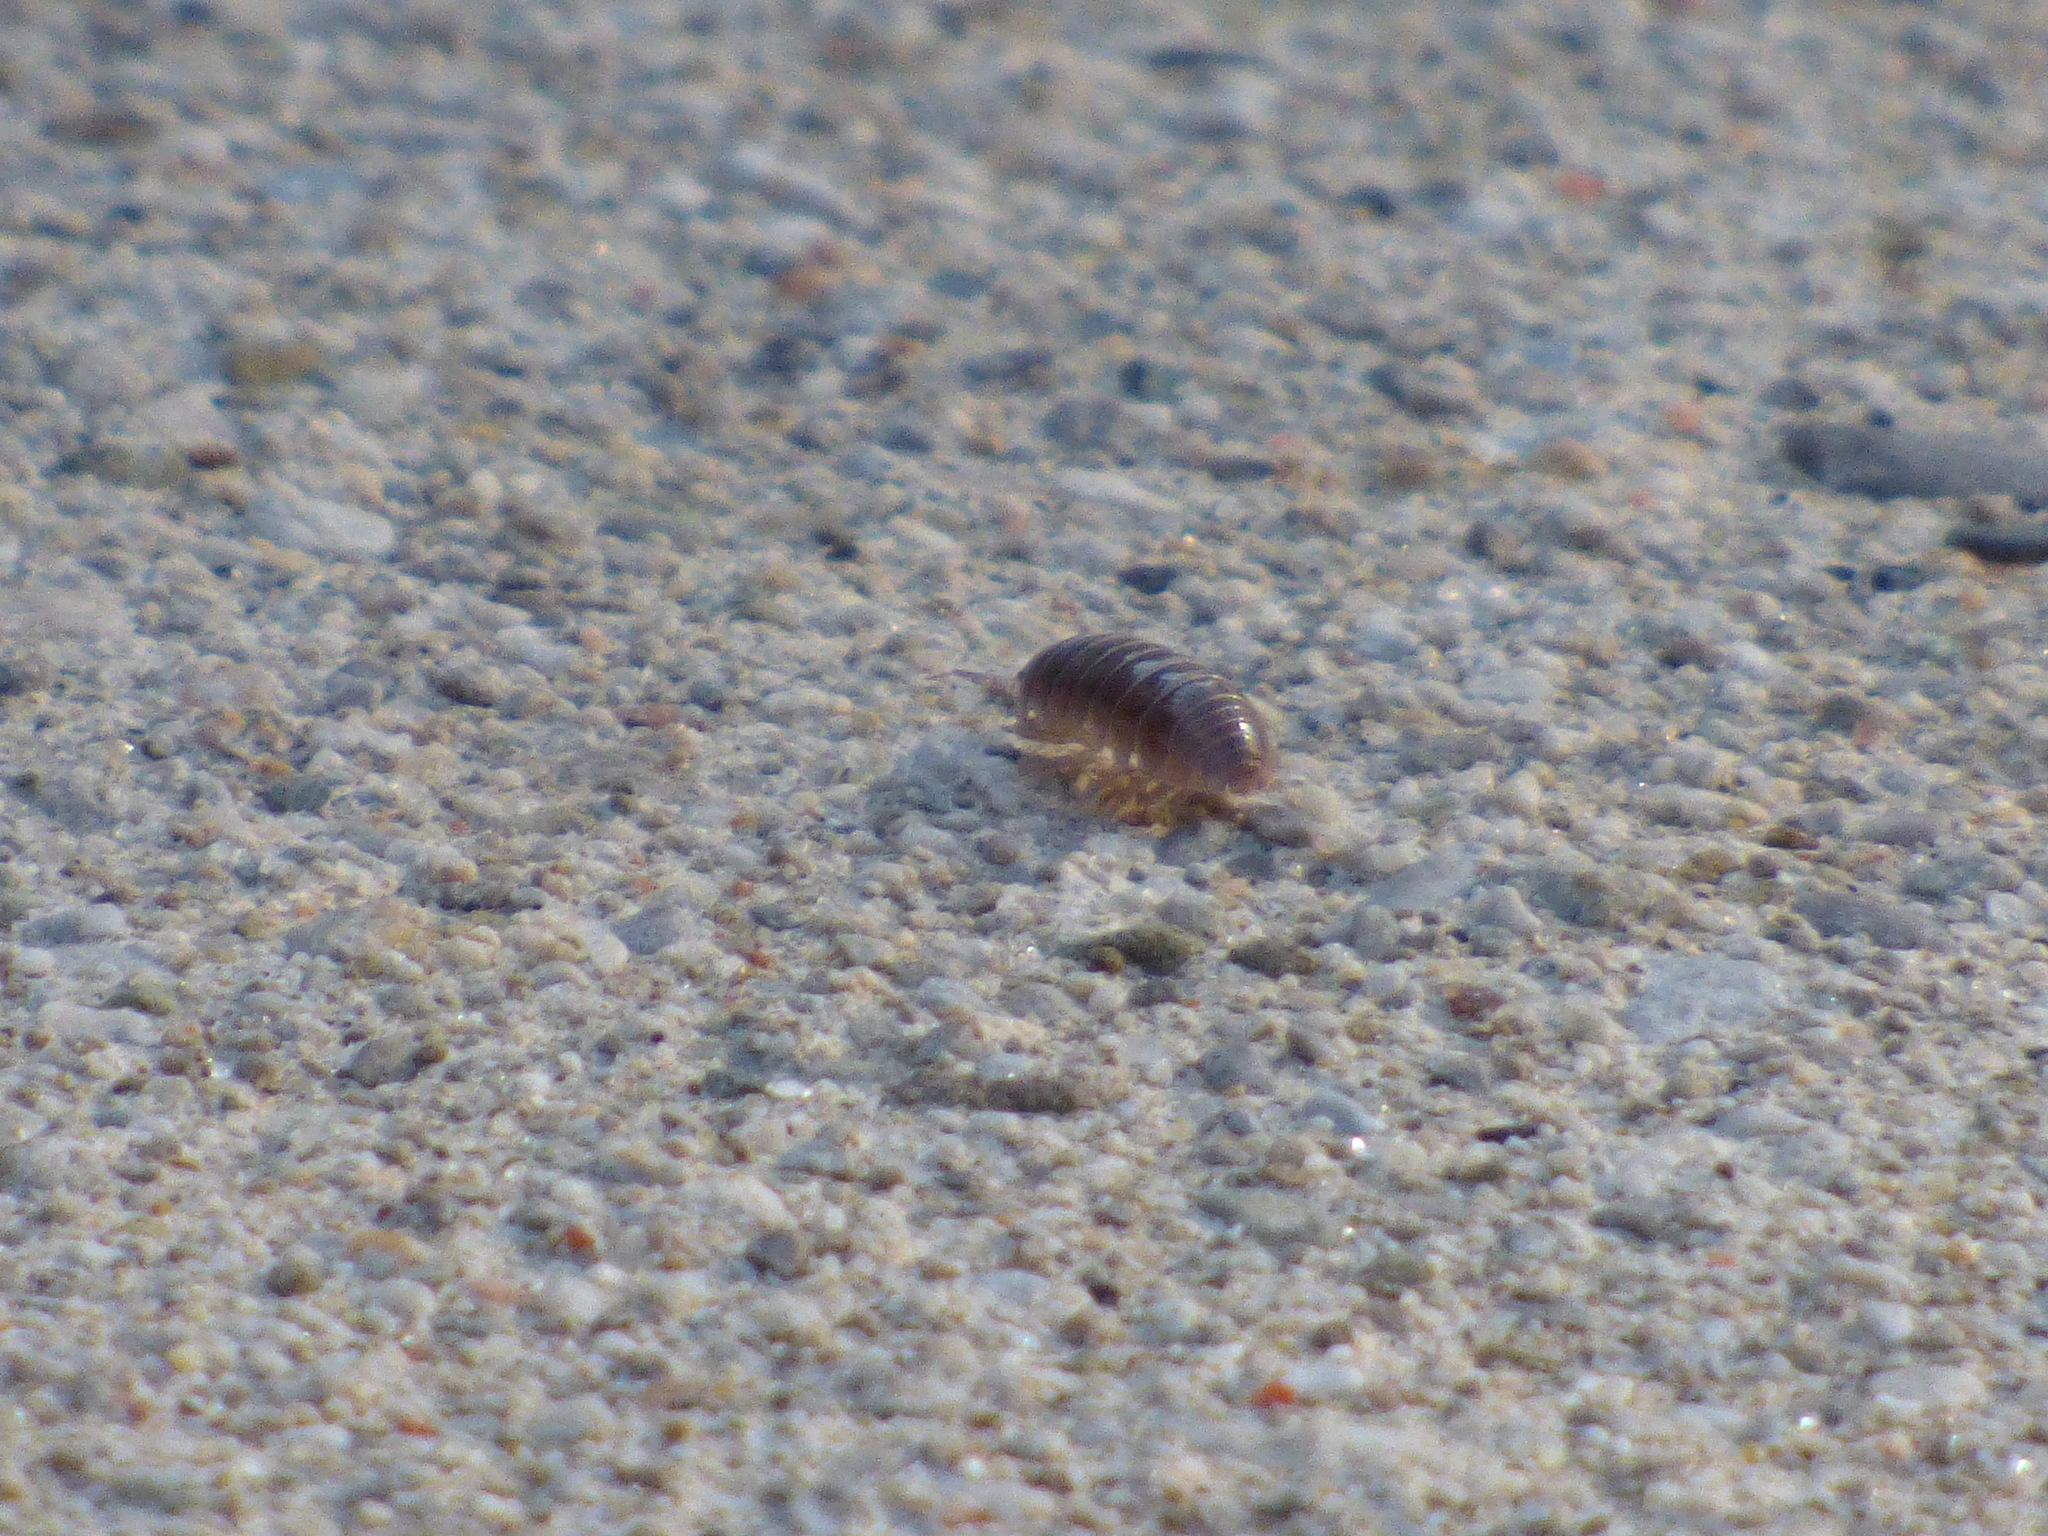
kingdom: Animalia
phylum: Arthropoda
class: Malacostraca
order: Isopoda
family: Armadillidiidae
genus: Armadillidium
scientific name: Armadillidium vulgare
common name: Common pill woodlouse
